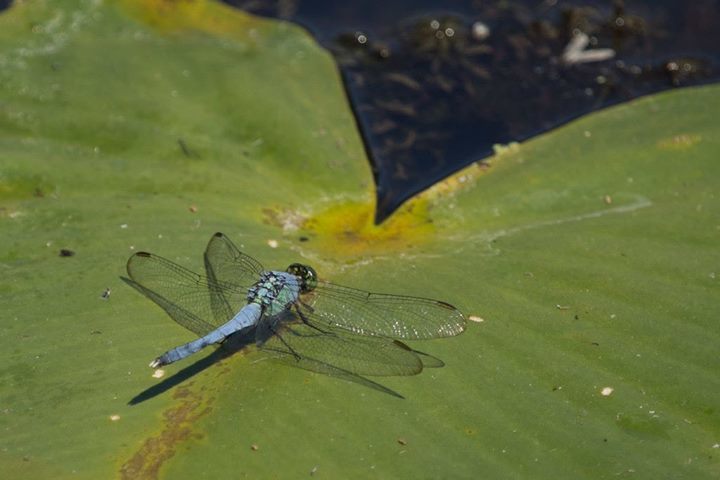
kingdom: Animalia
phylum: Arthropoda
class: Insecta
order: Odonata
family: Libellulidae
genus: Erythemis
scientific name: Erythemis simplicicollis
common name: Eastern pondhawk
